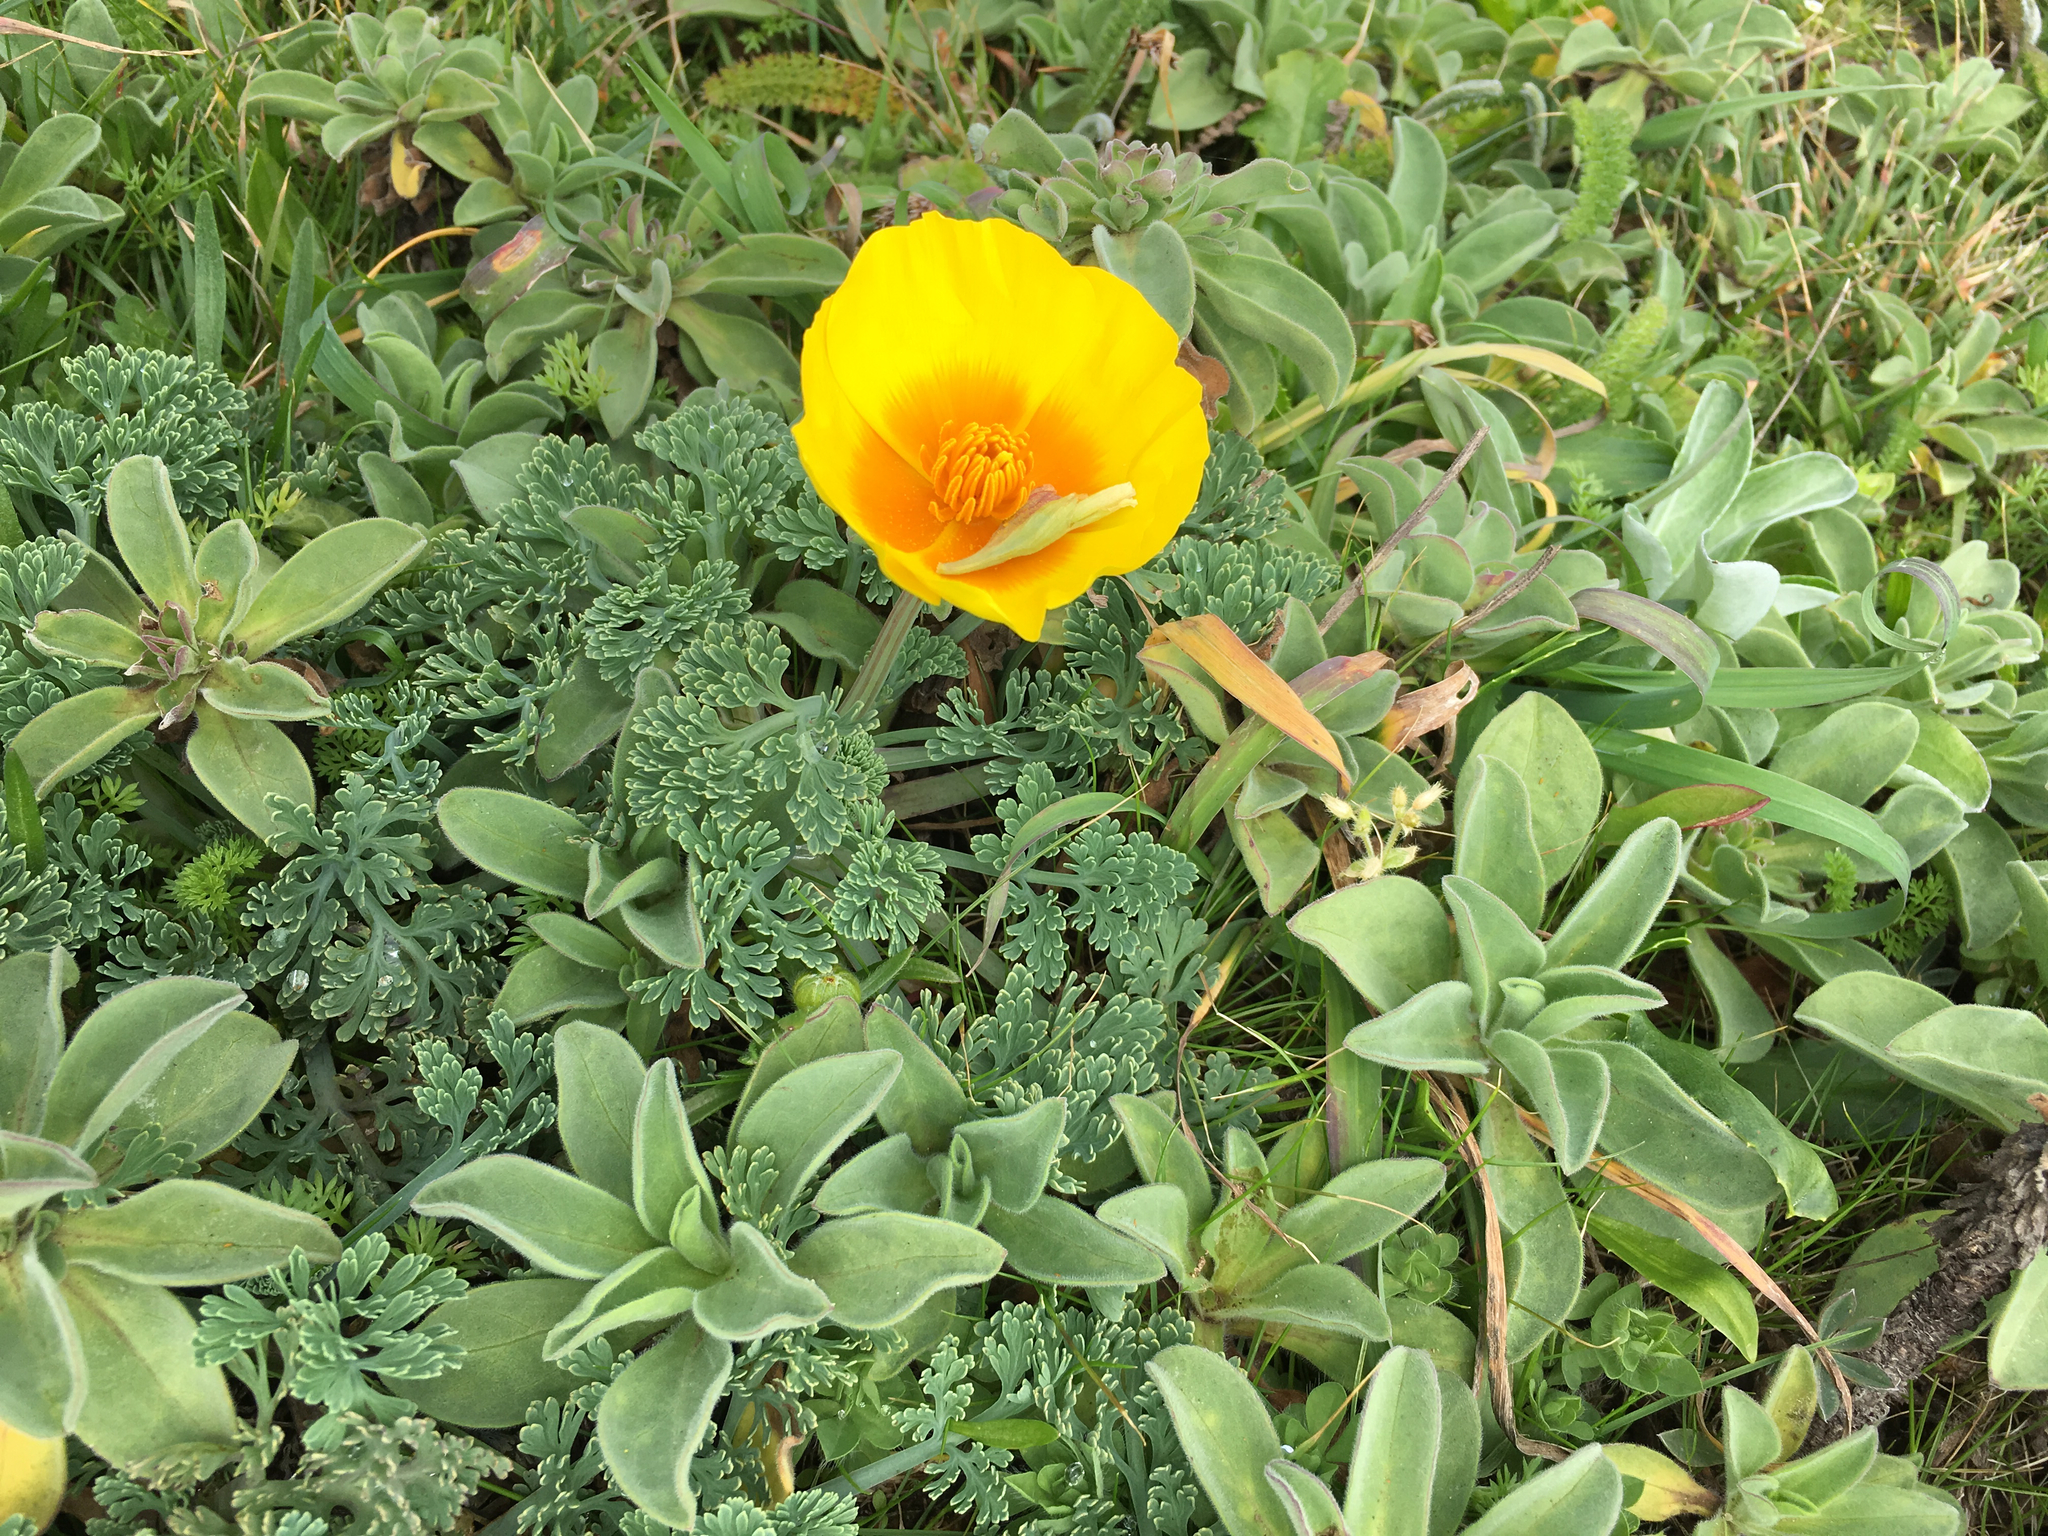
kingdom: Plantae
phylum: Tracheophyta
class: Magnoliopsida
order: Ranunculales
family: Papaveraceae
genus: Eschscholzia
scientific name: Eschscholzia californica
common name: California poppy
